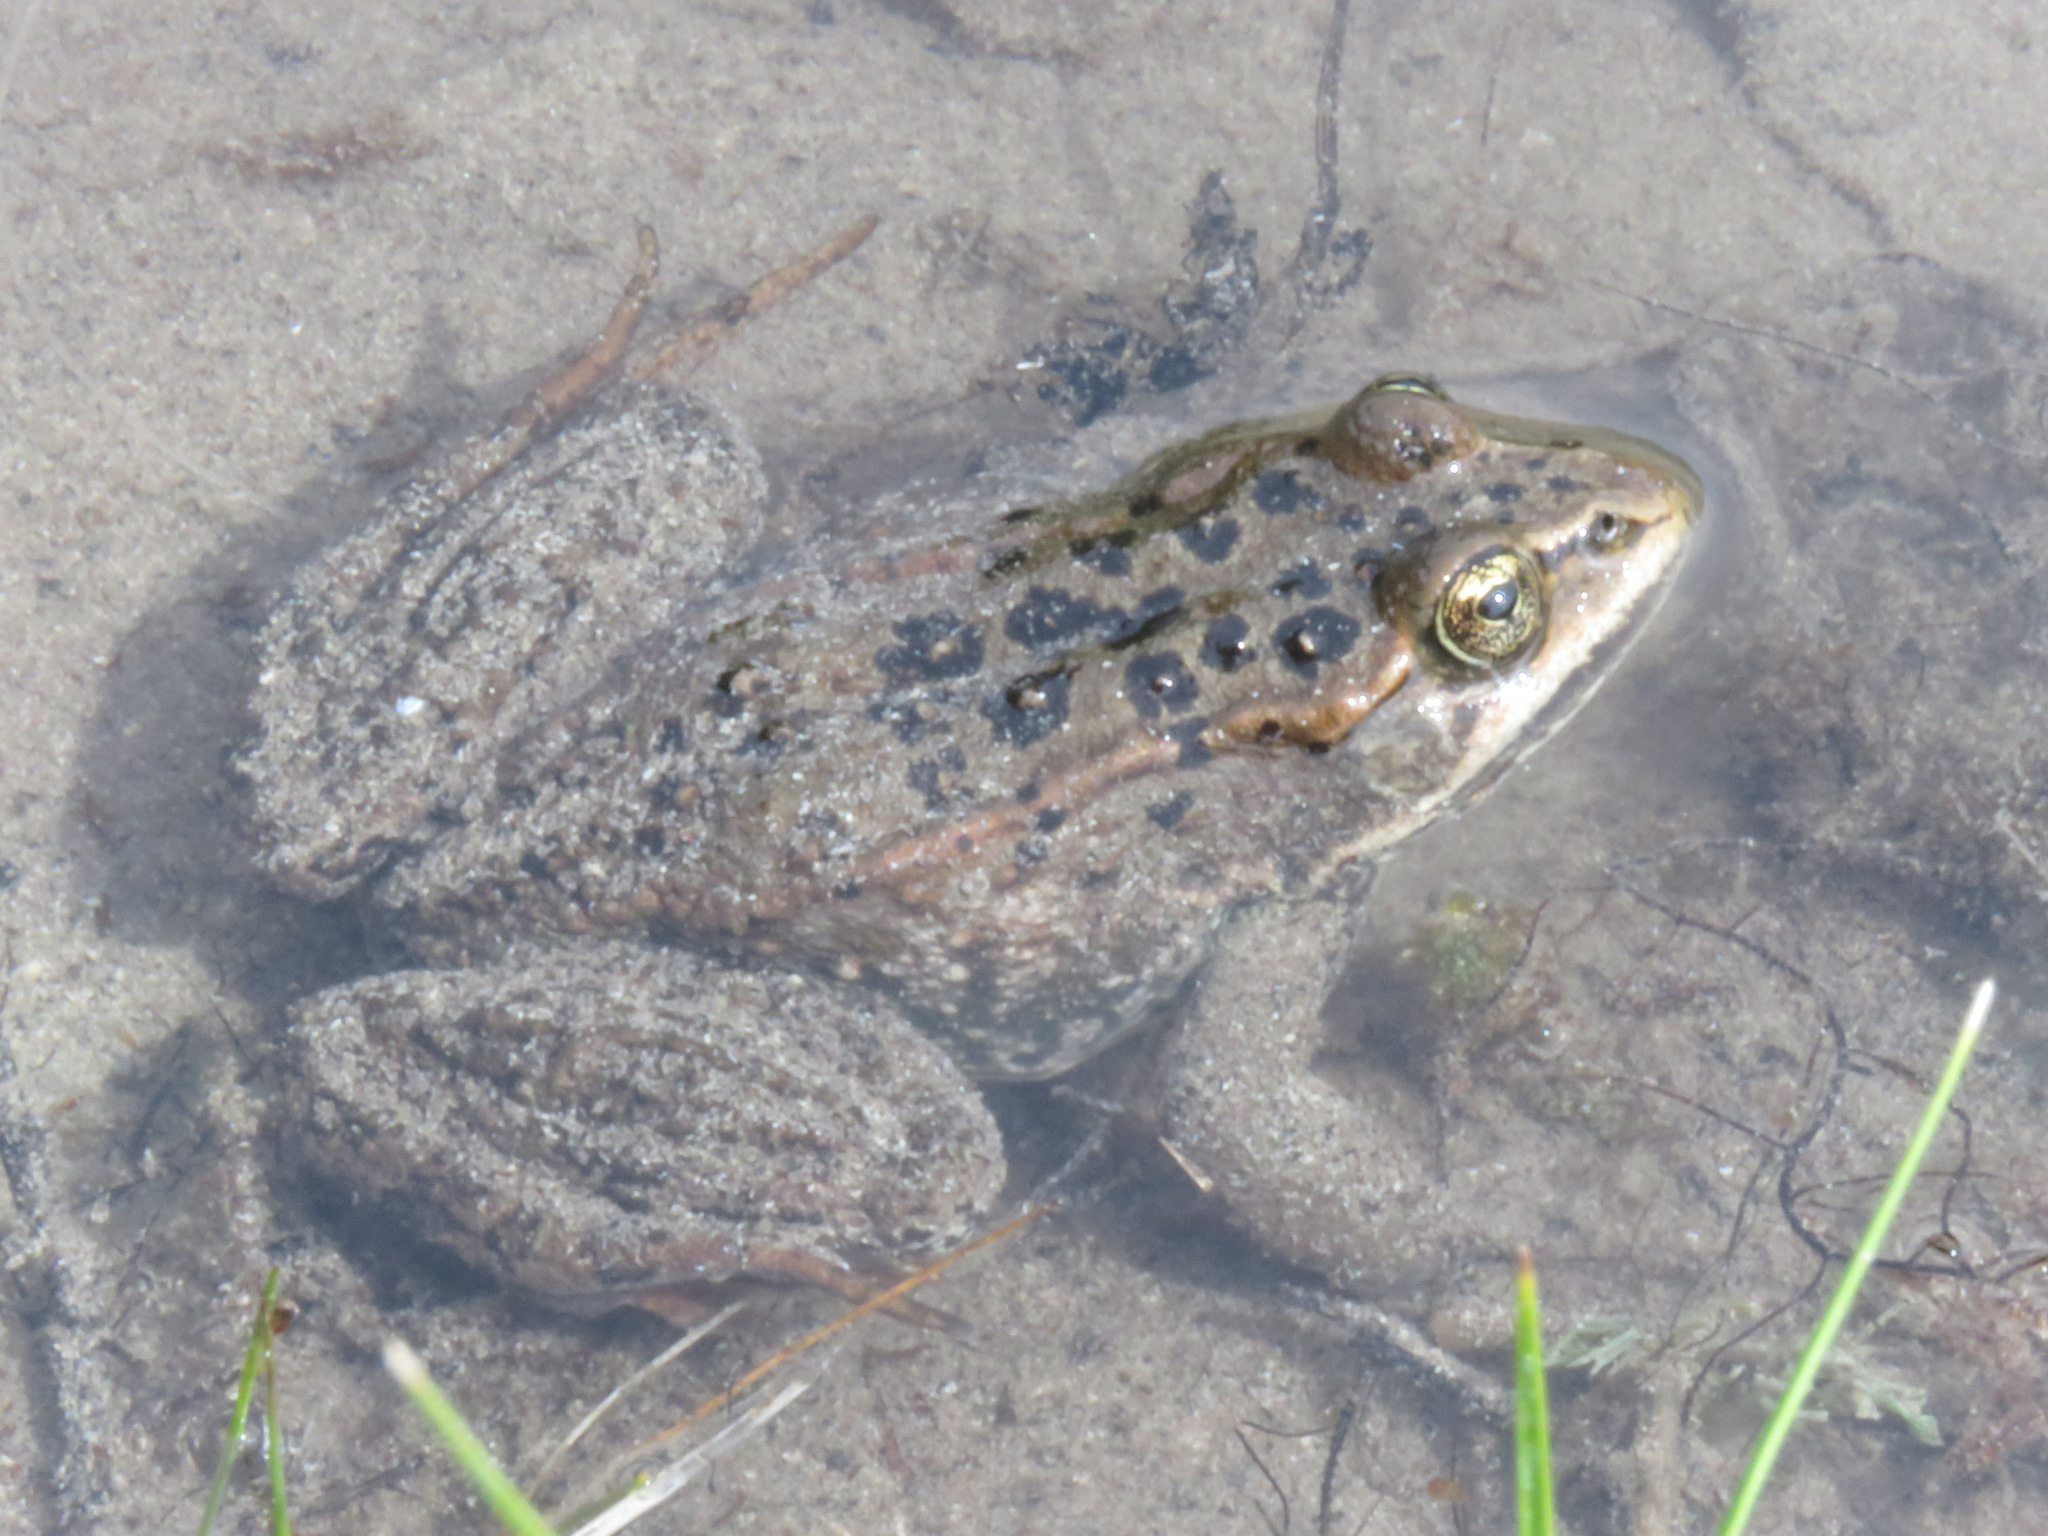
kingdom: Animalia
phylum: Chordata
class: Amphibia
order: Anura
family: Ranidae
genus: Rana
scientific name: Rana luteiventris
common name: Columbia spotted frog
